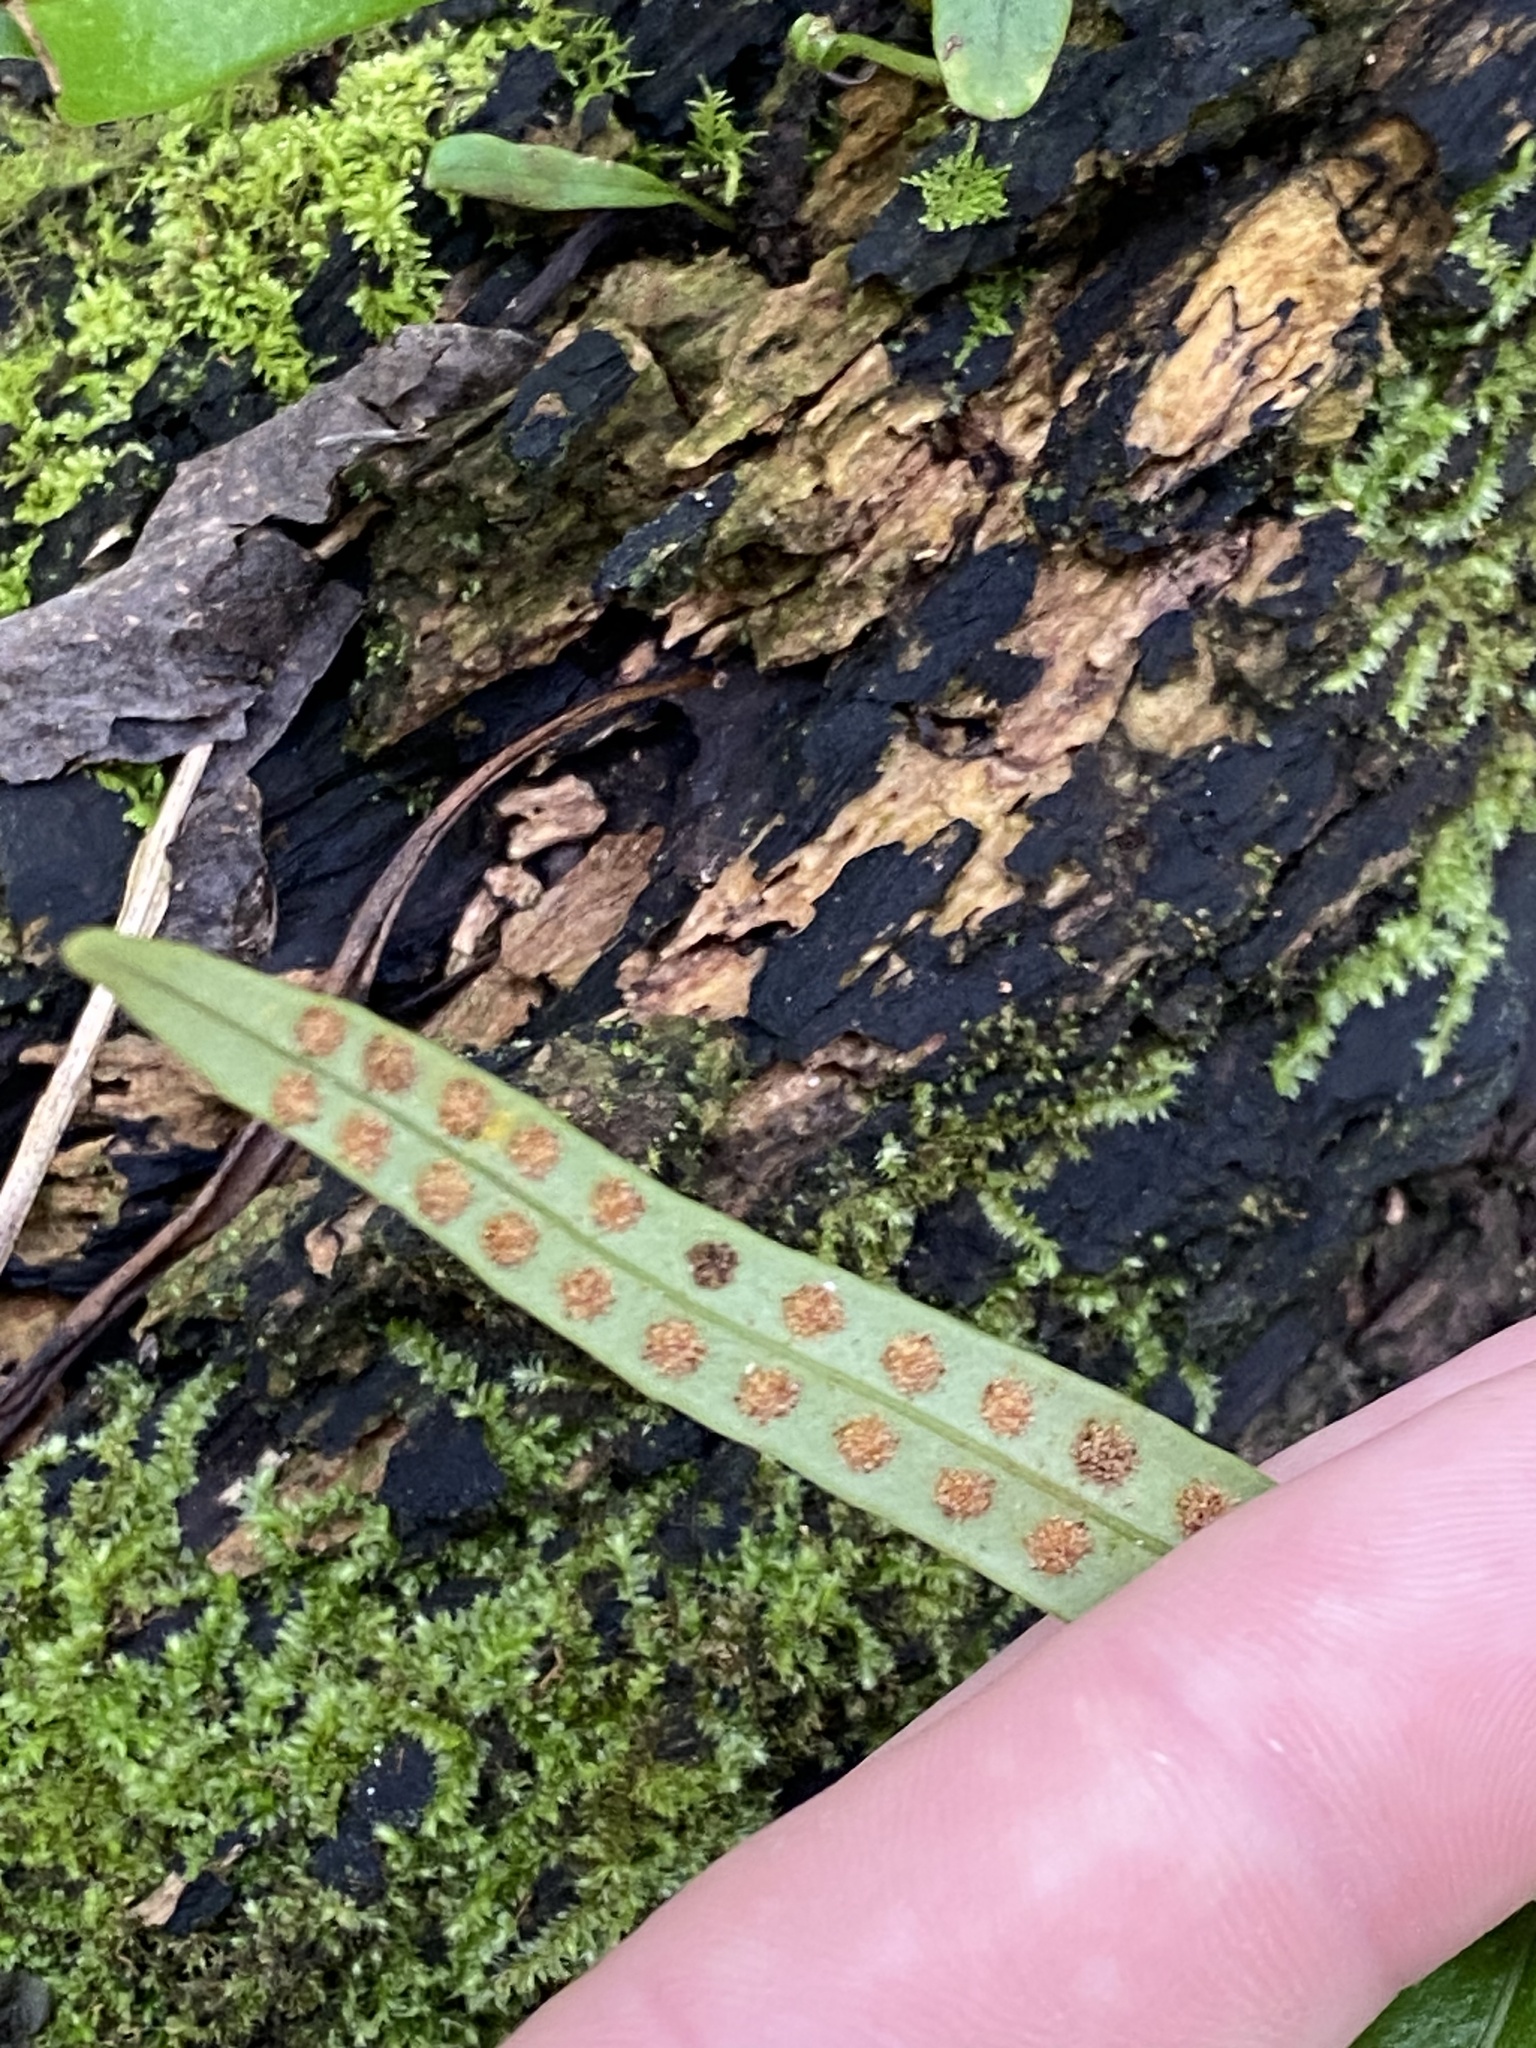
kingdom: Plantae
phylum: Tracheophyta
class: Polypodiopsida
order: Polypodiales
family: Polypodiaceae
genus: Lepisorus
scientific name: Lepisorus thunbergianus
